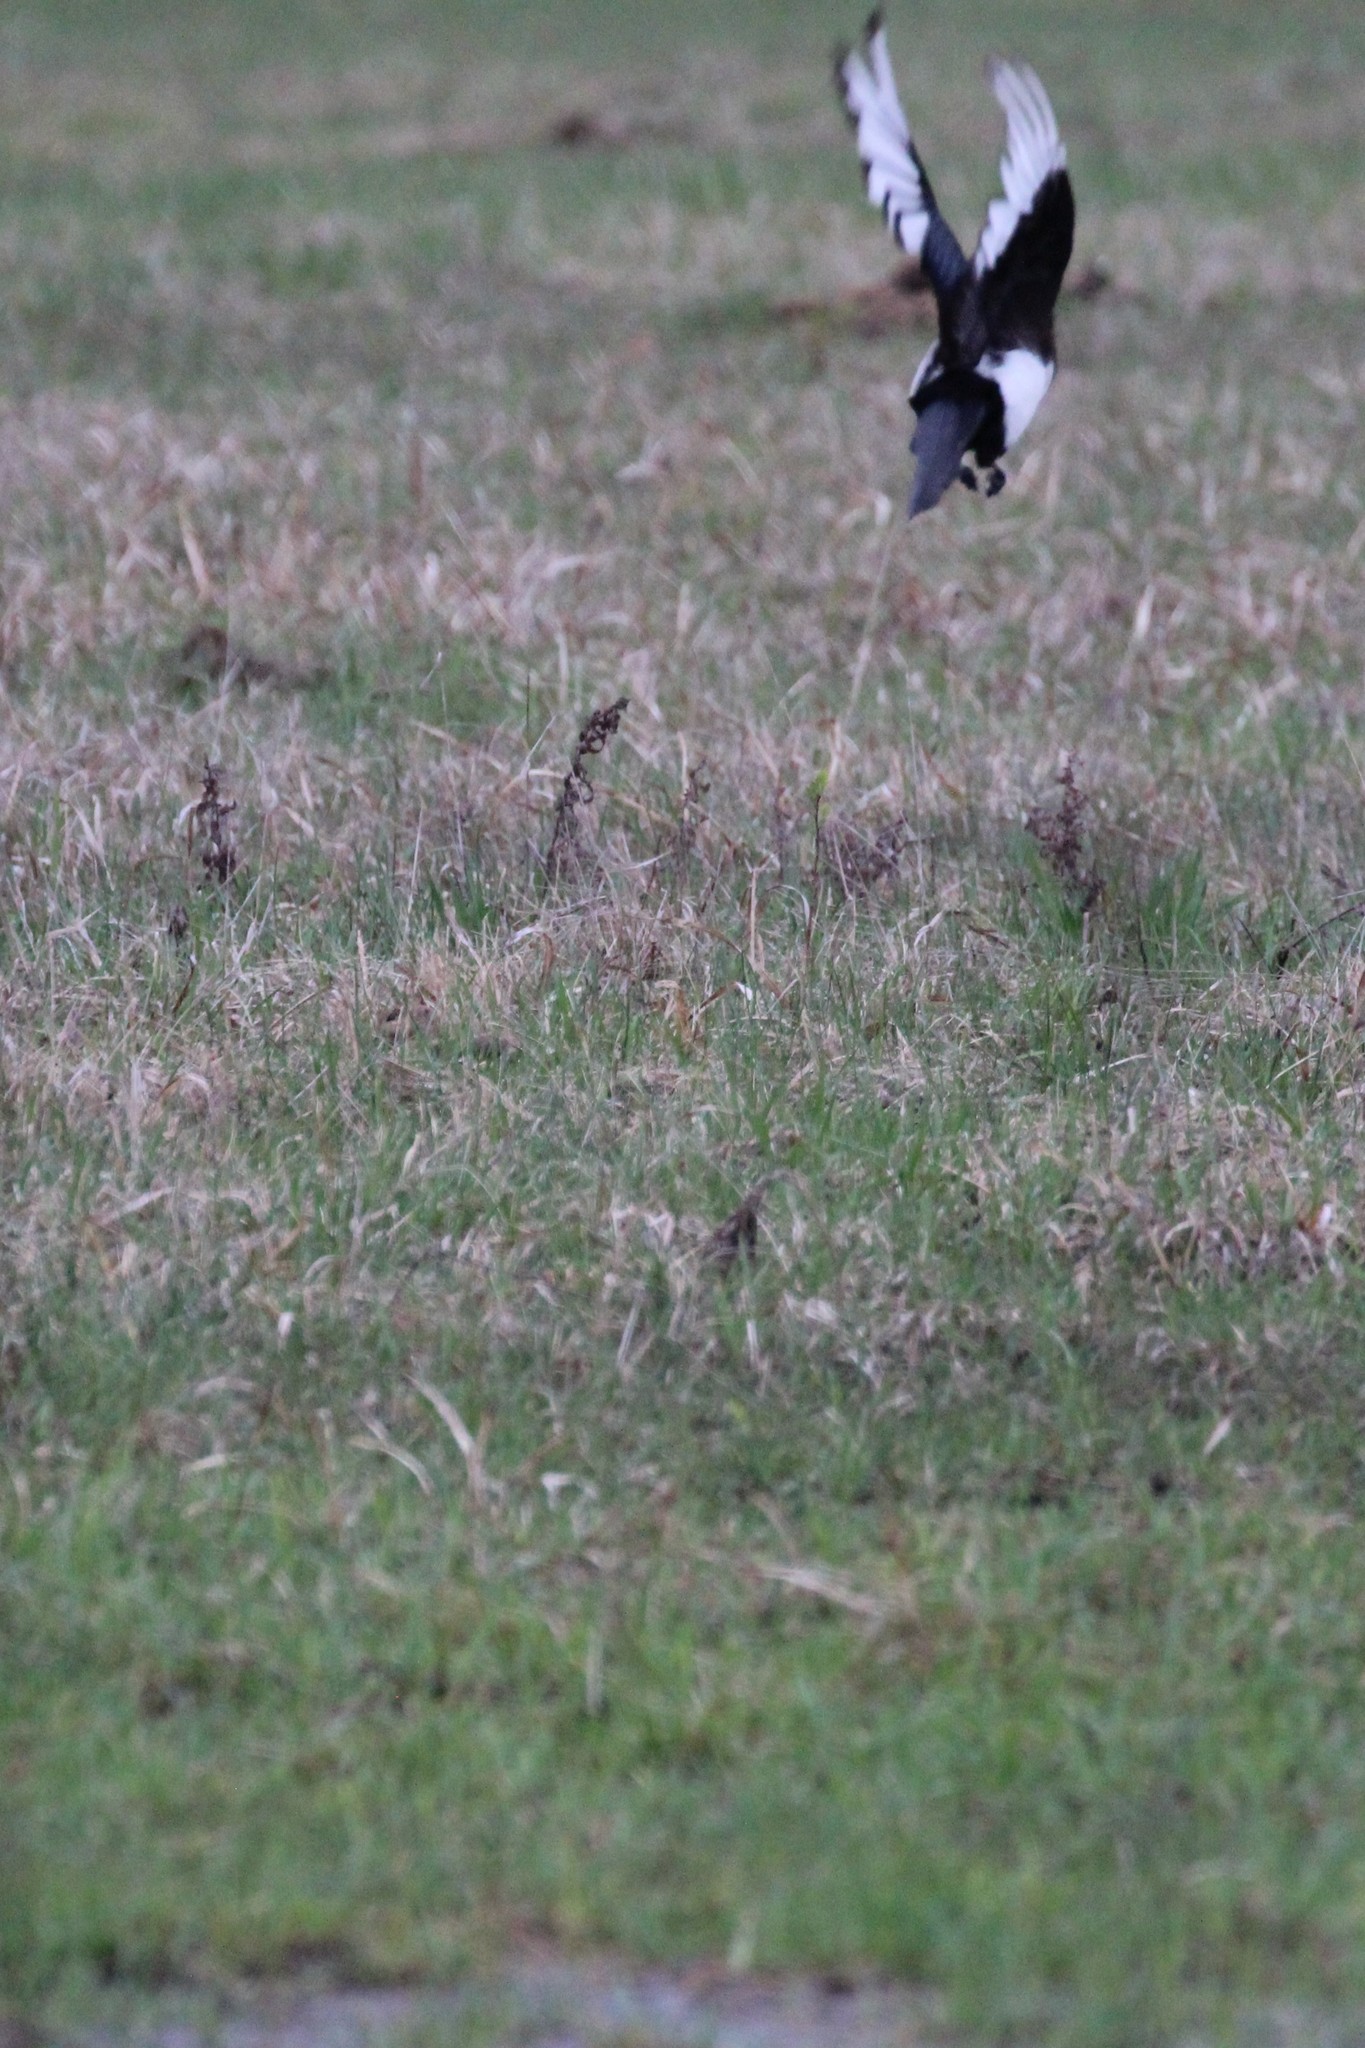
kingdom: Animalia
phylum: Chordata
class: Aves
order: Passeriformes
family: Corvidae
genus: Pica
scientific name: Pica hudsonia
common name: Black-billed magpie
